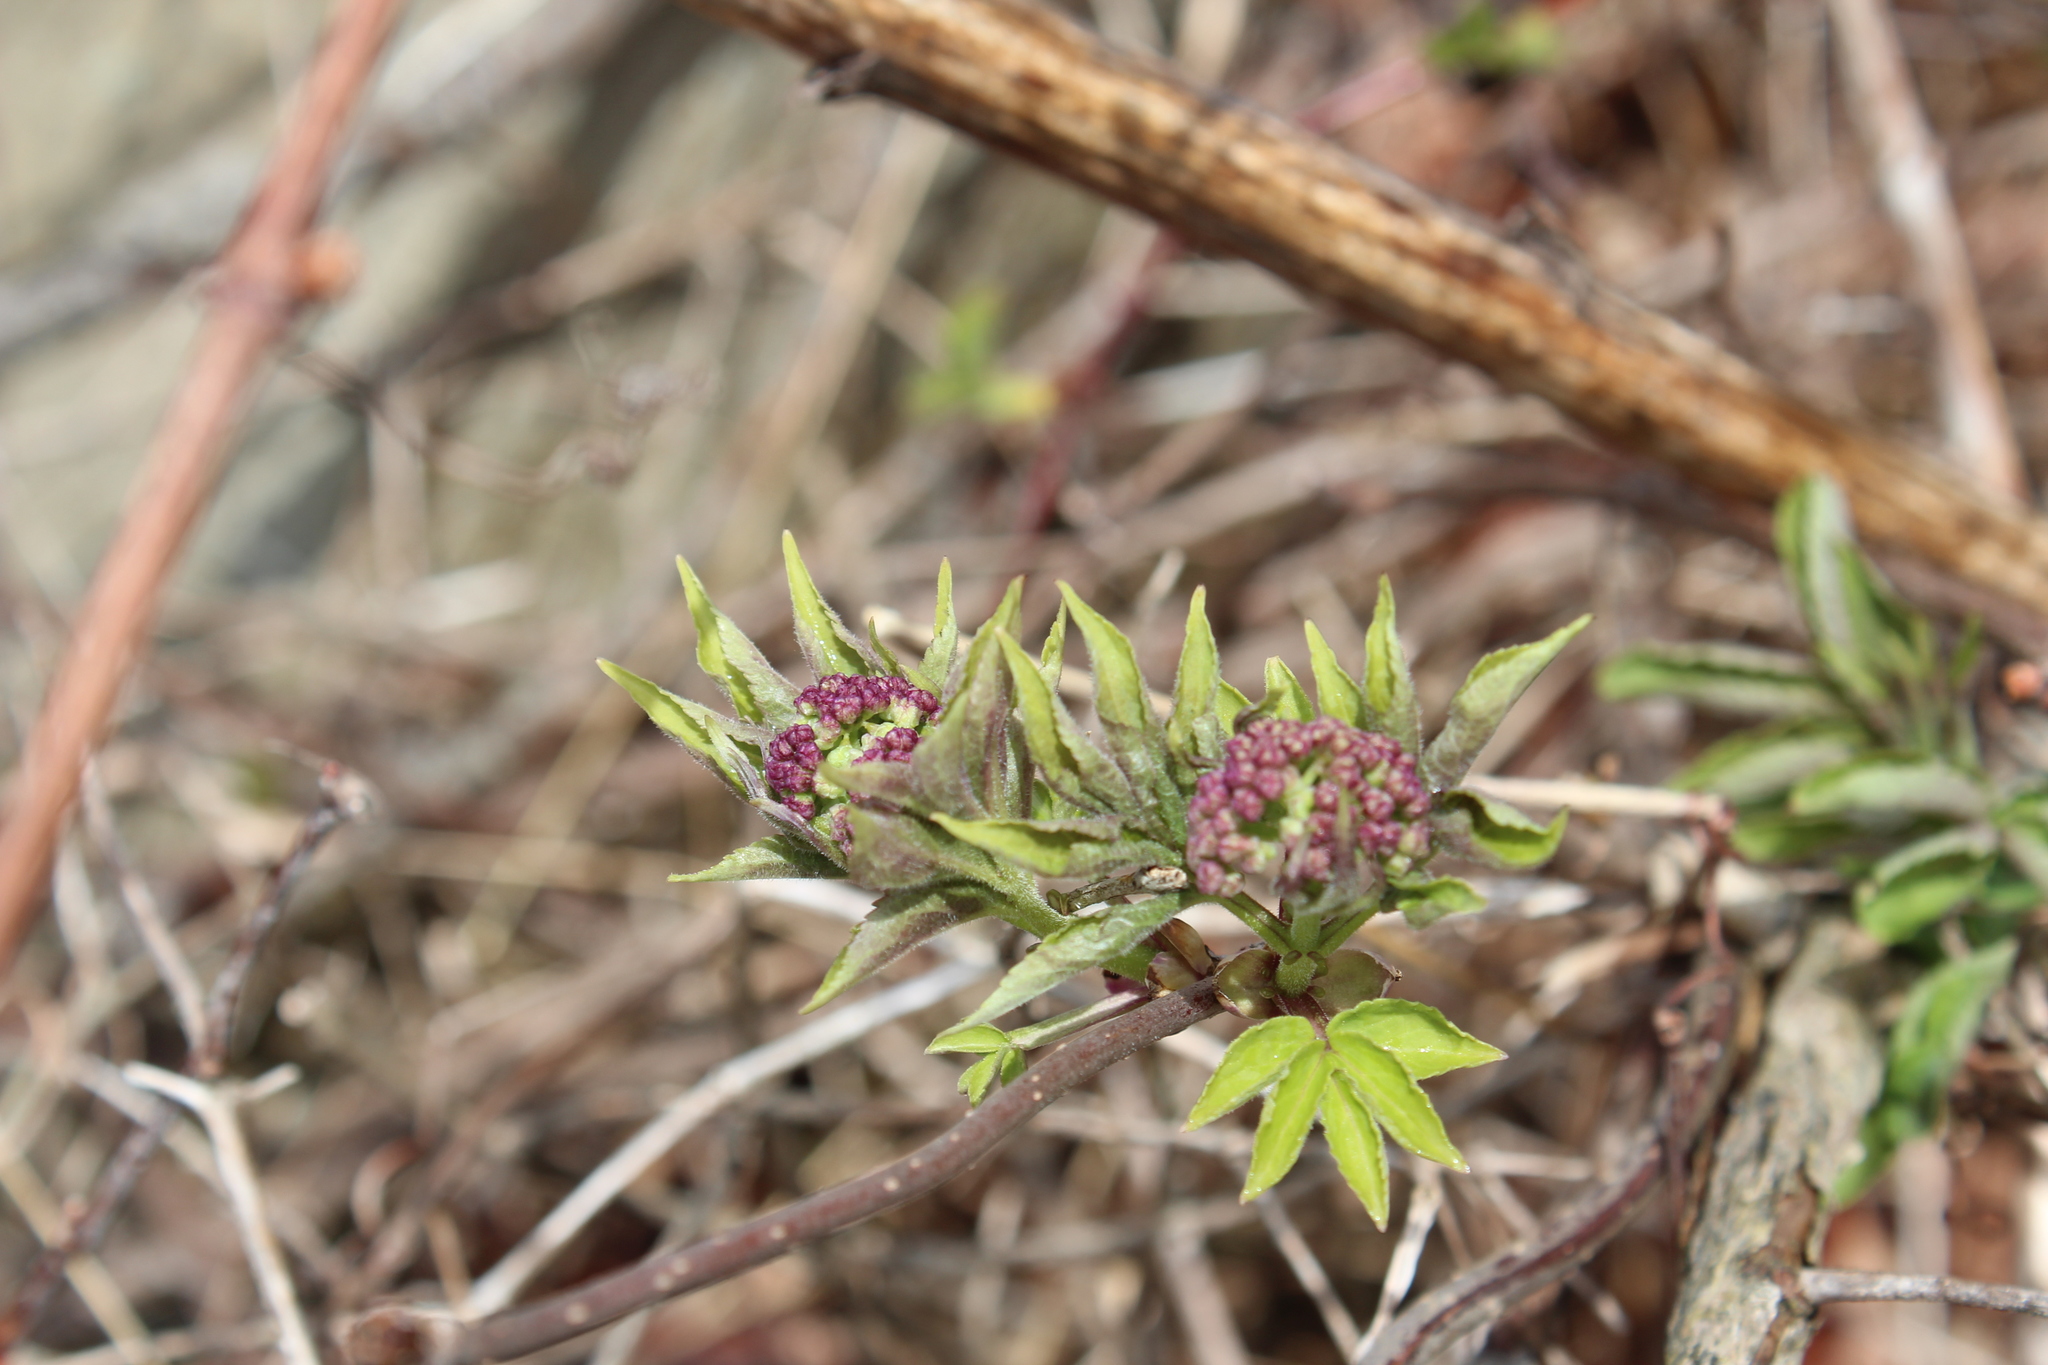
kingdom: Plantae
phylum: Tracheophyta
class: Magnoliopsida
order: Dipsacales
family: Viburnaceae
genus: Sambucus
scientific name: Sambucus racemosa
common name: Red-berried elder
